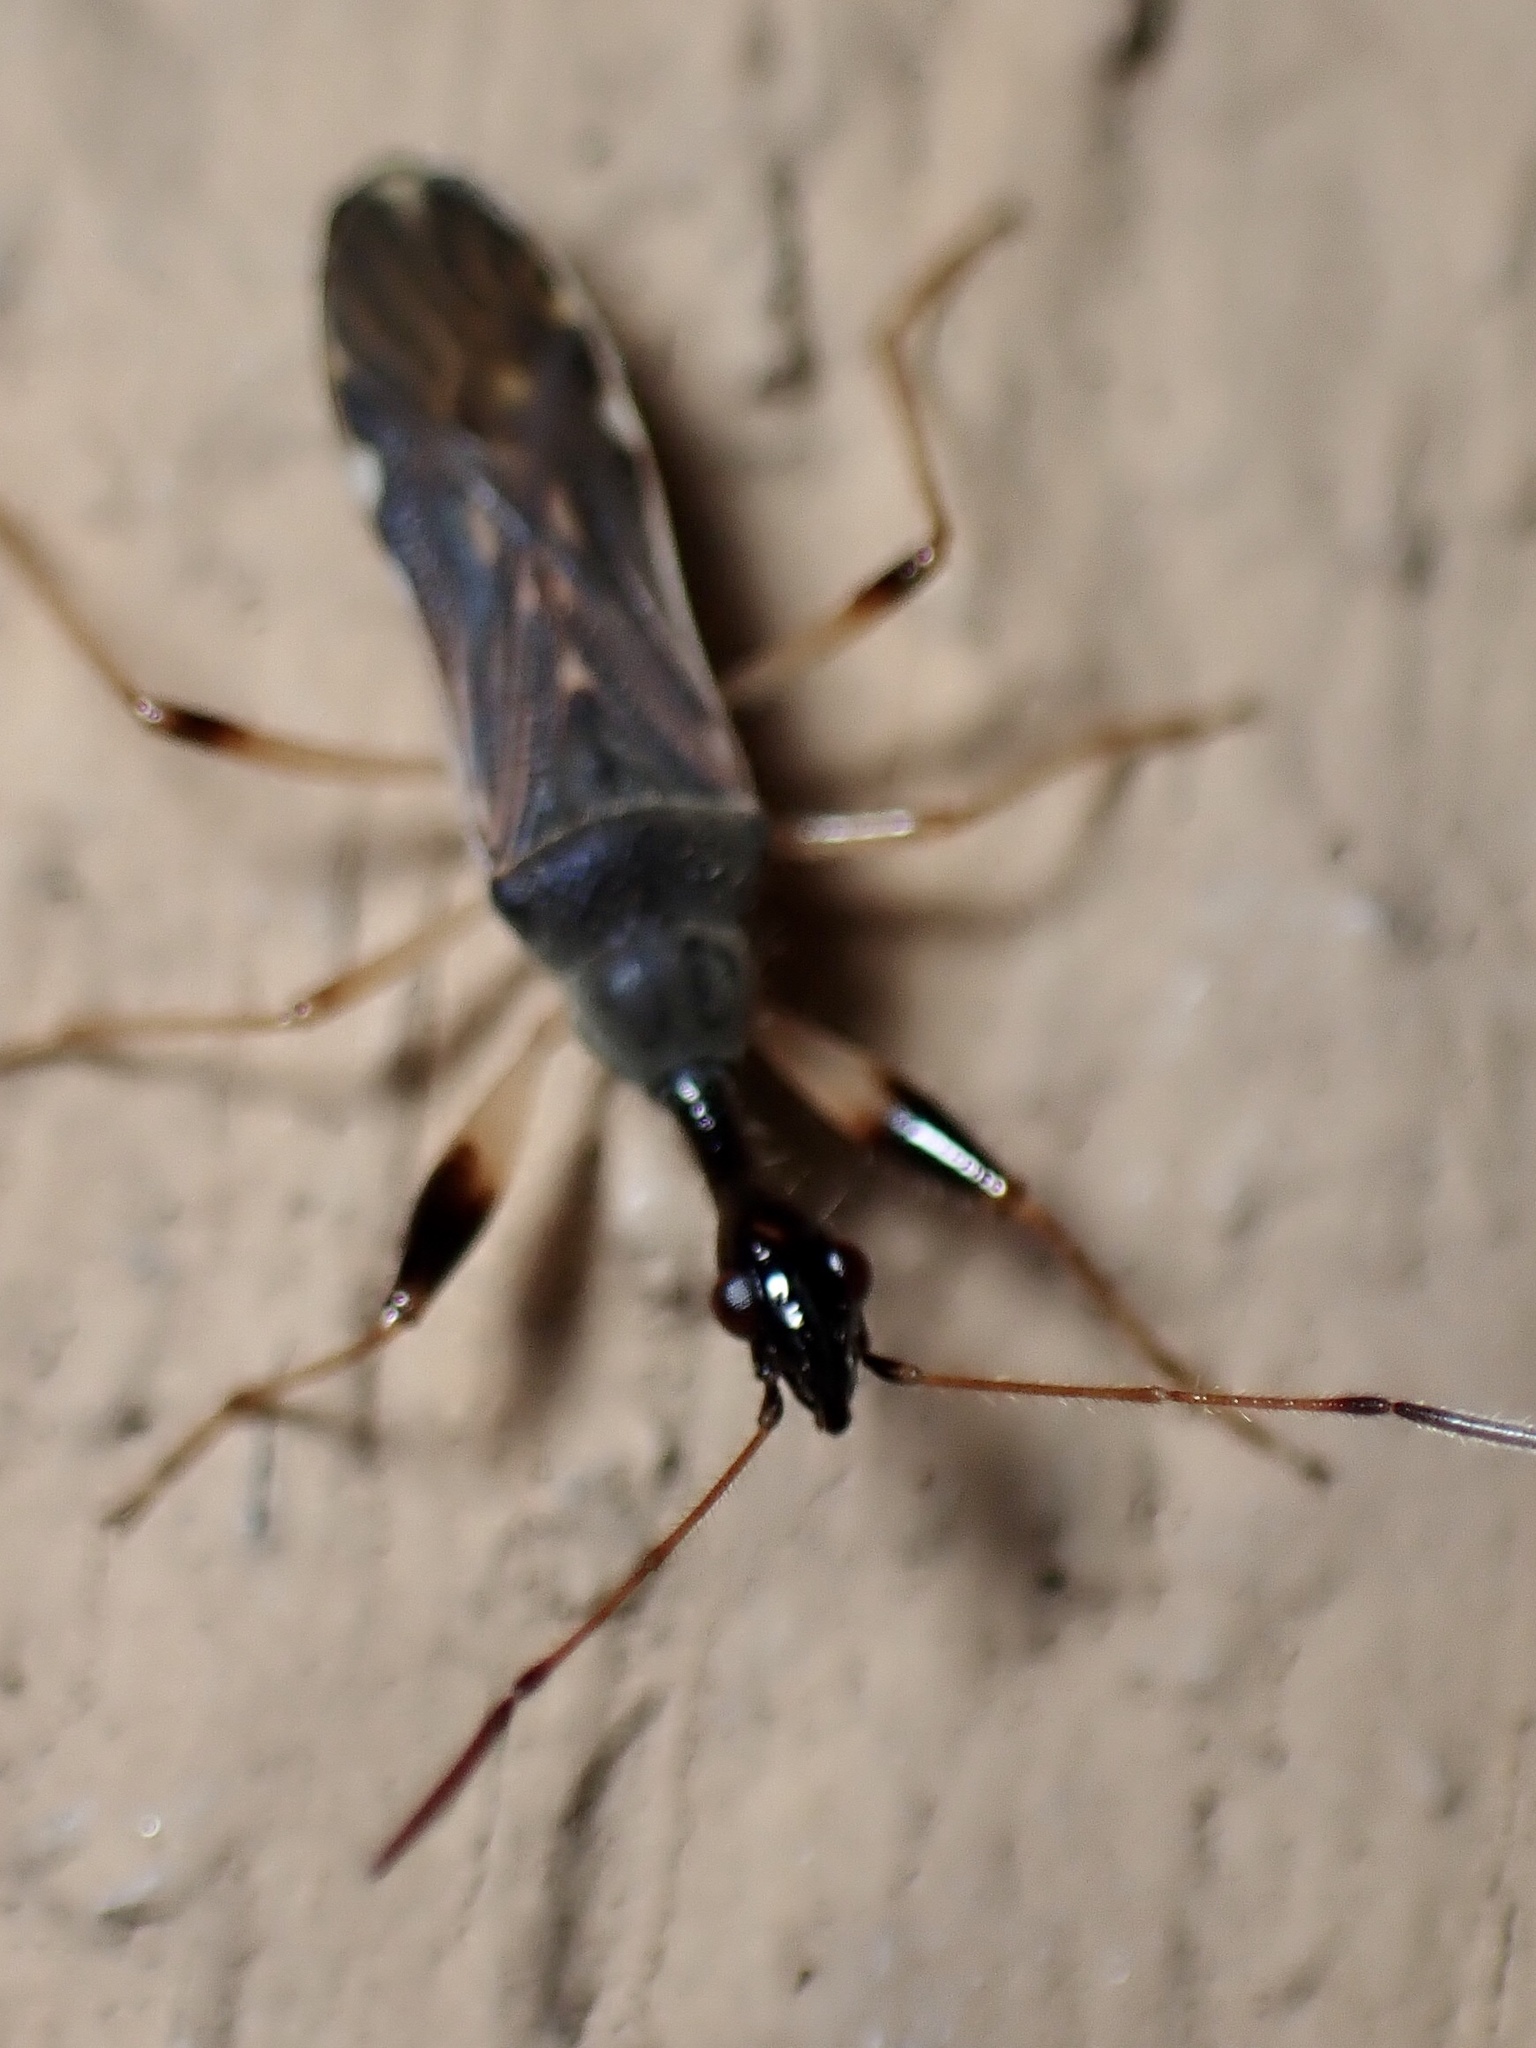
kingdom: Animalia
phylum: Arthropoda
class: Insecta
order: Hemiptera
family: Rhyparochromidae
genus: Myodocha
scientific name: Myodocha serripes
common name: Long-necked seed bug
